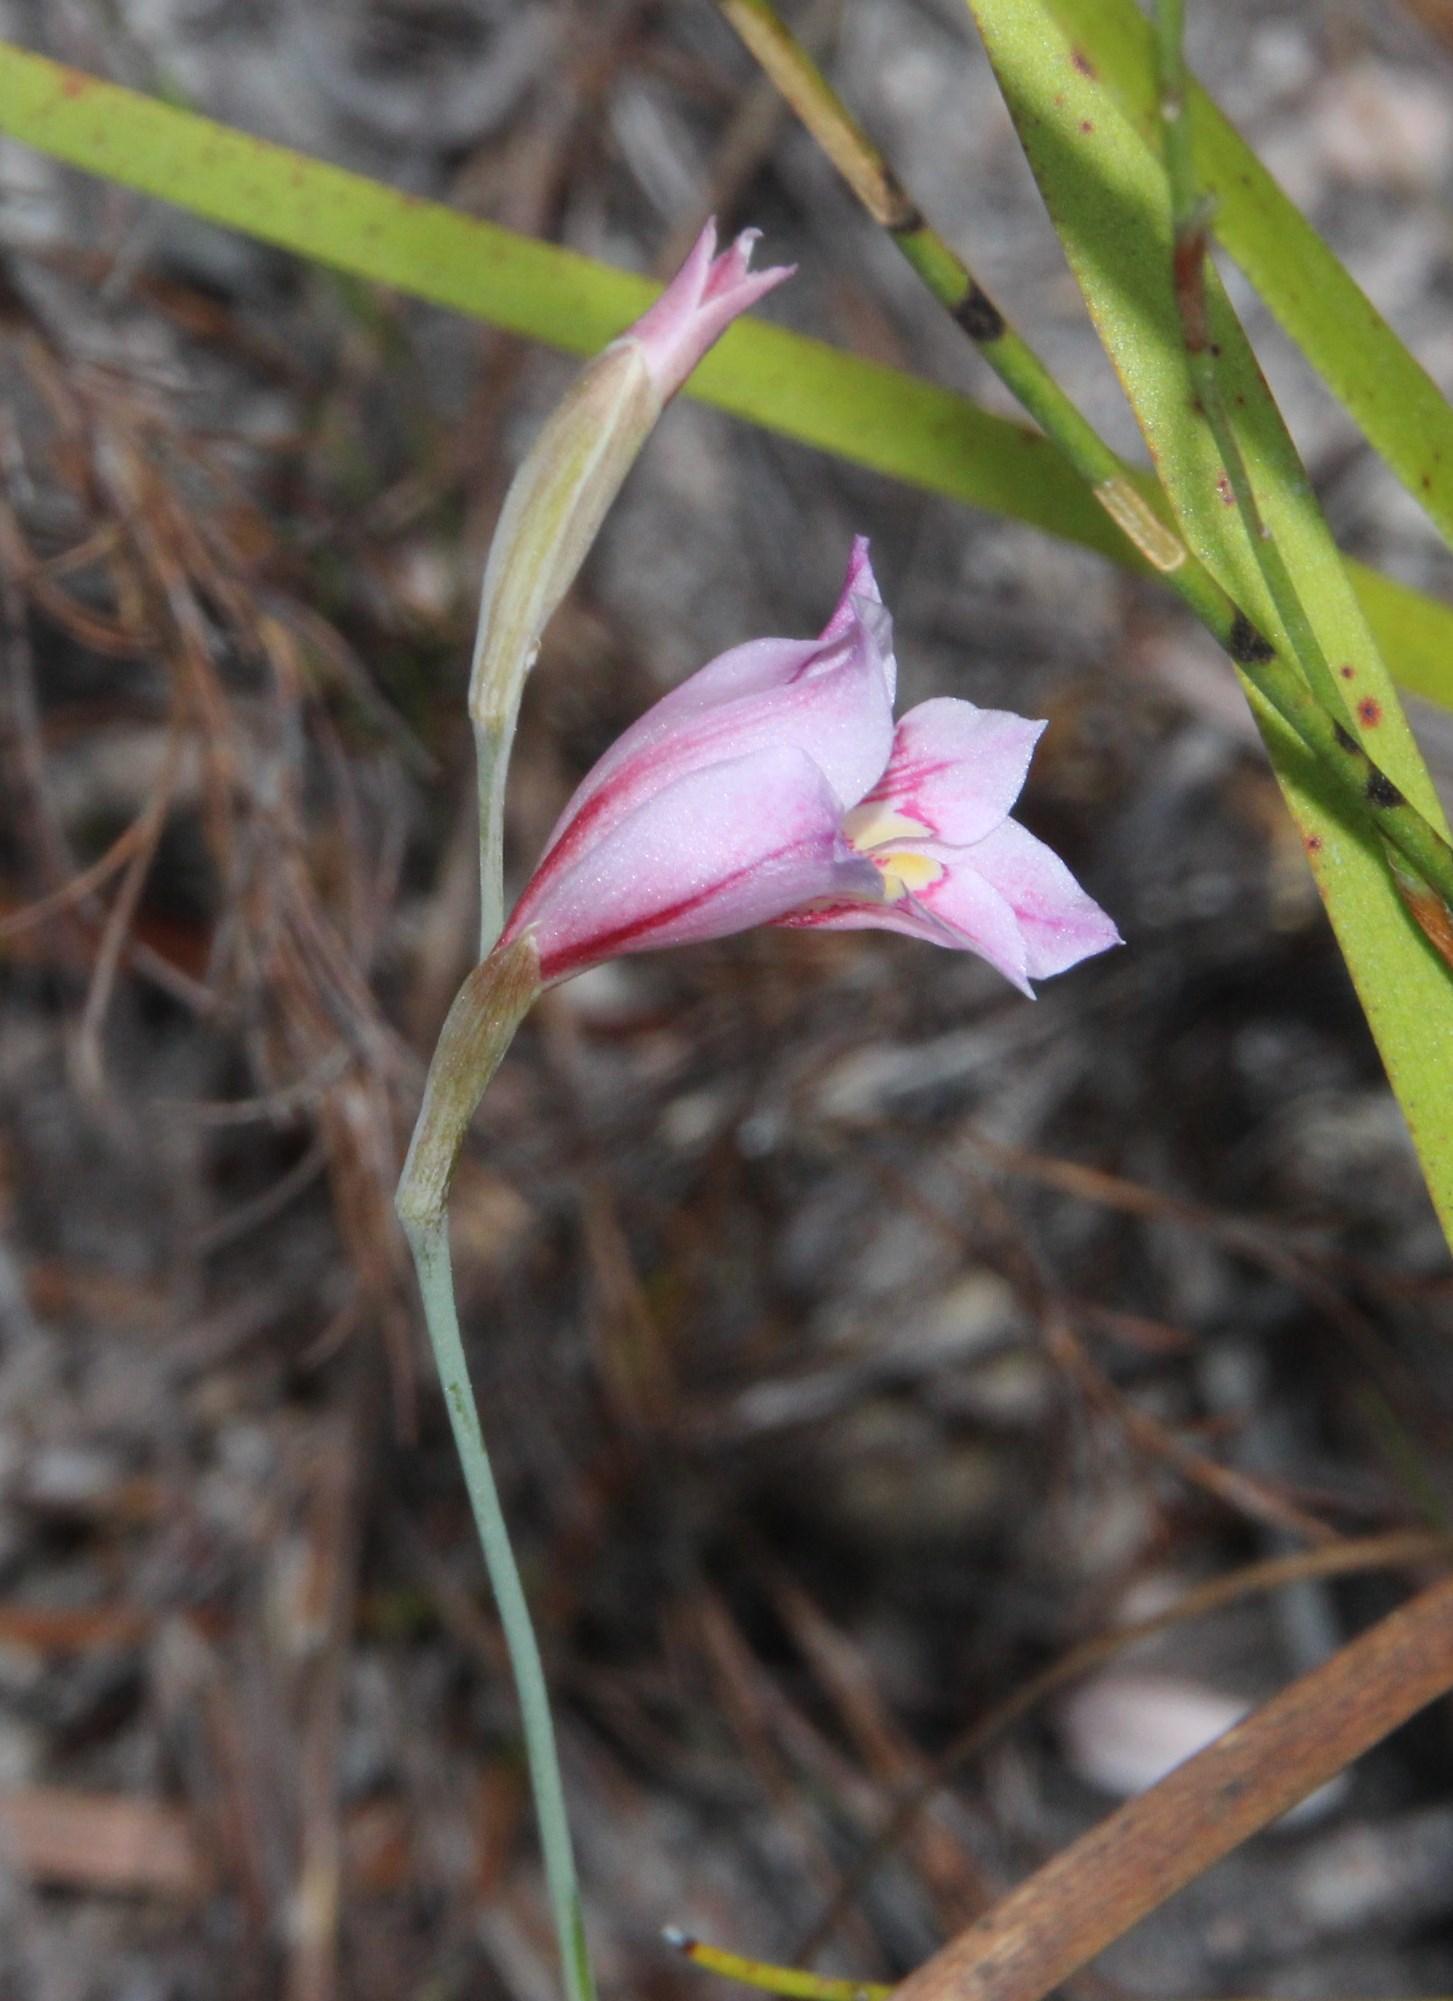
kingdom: Plantae
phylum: Tracheophyta
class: Liliopsida
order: Asparagales
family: Iridaceae
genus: Gladiolus
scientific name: Gladiolus brevifolius
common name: March pypie
